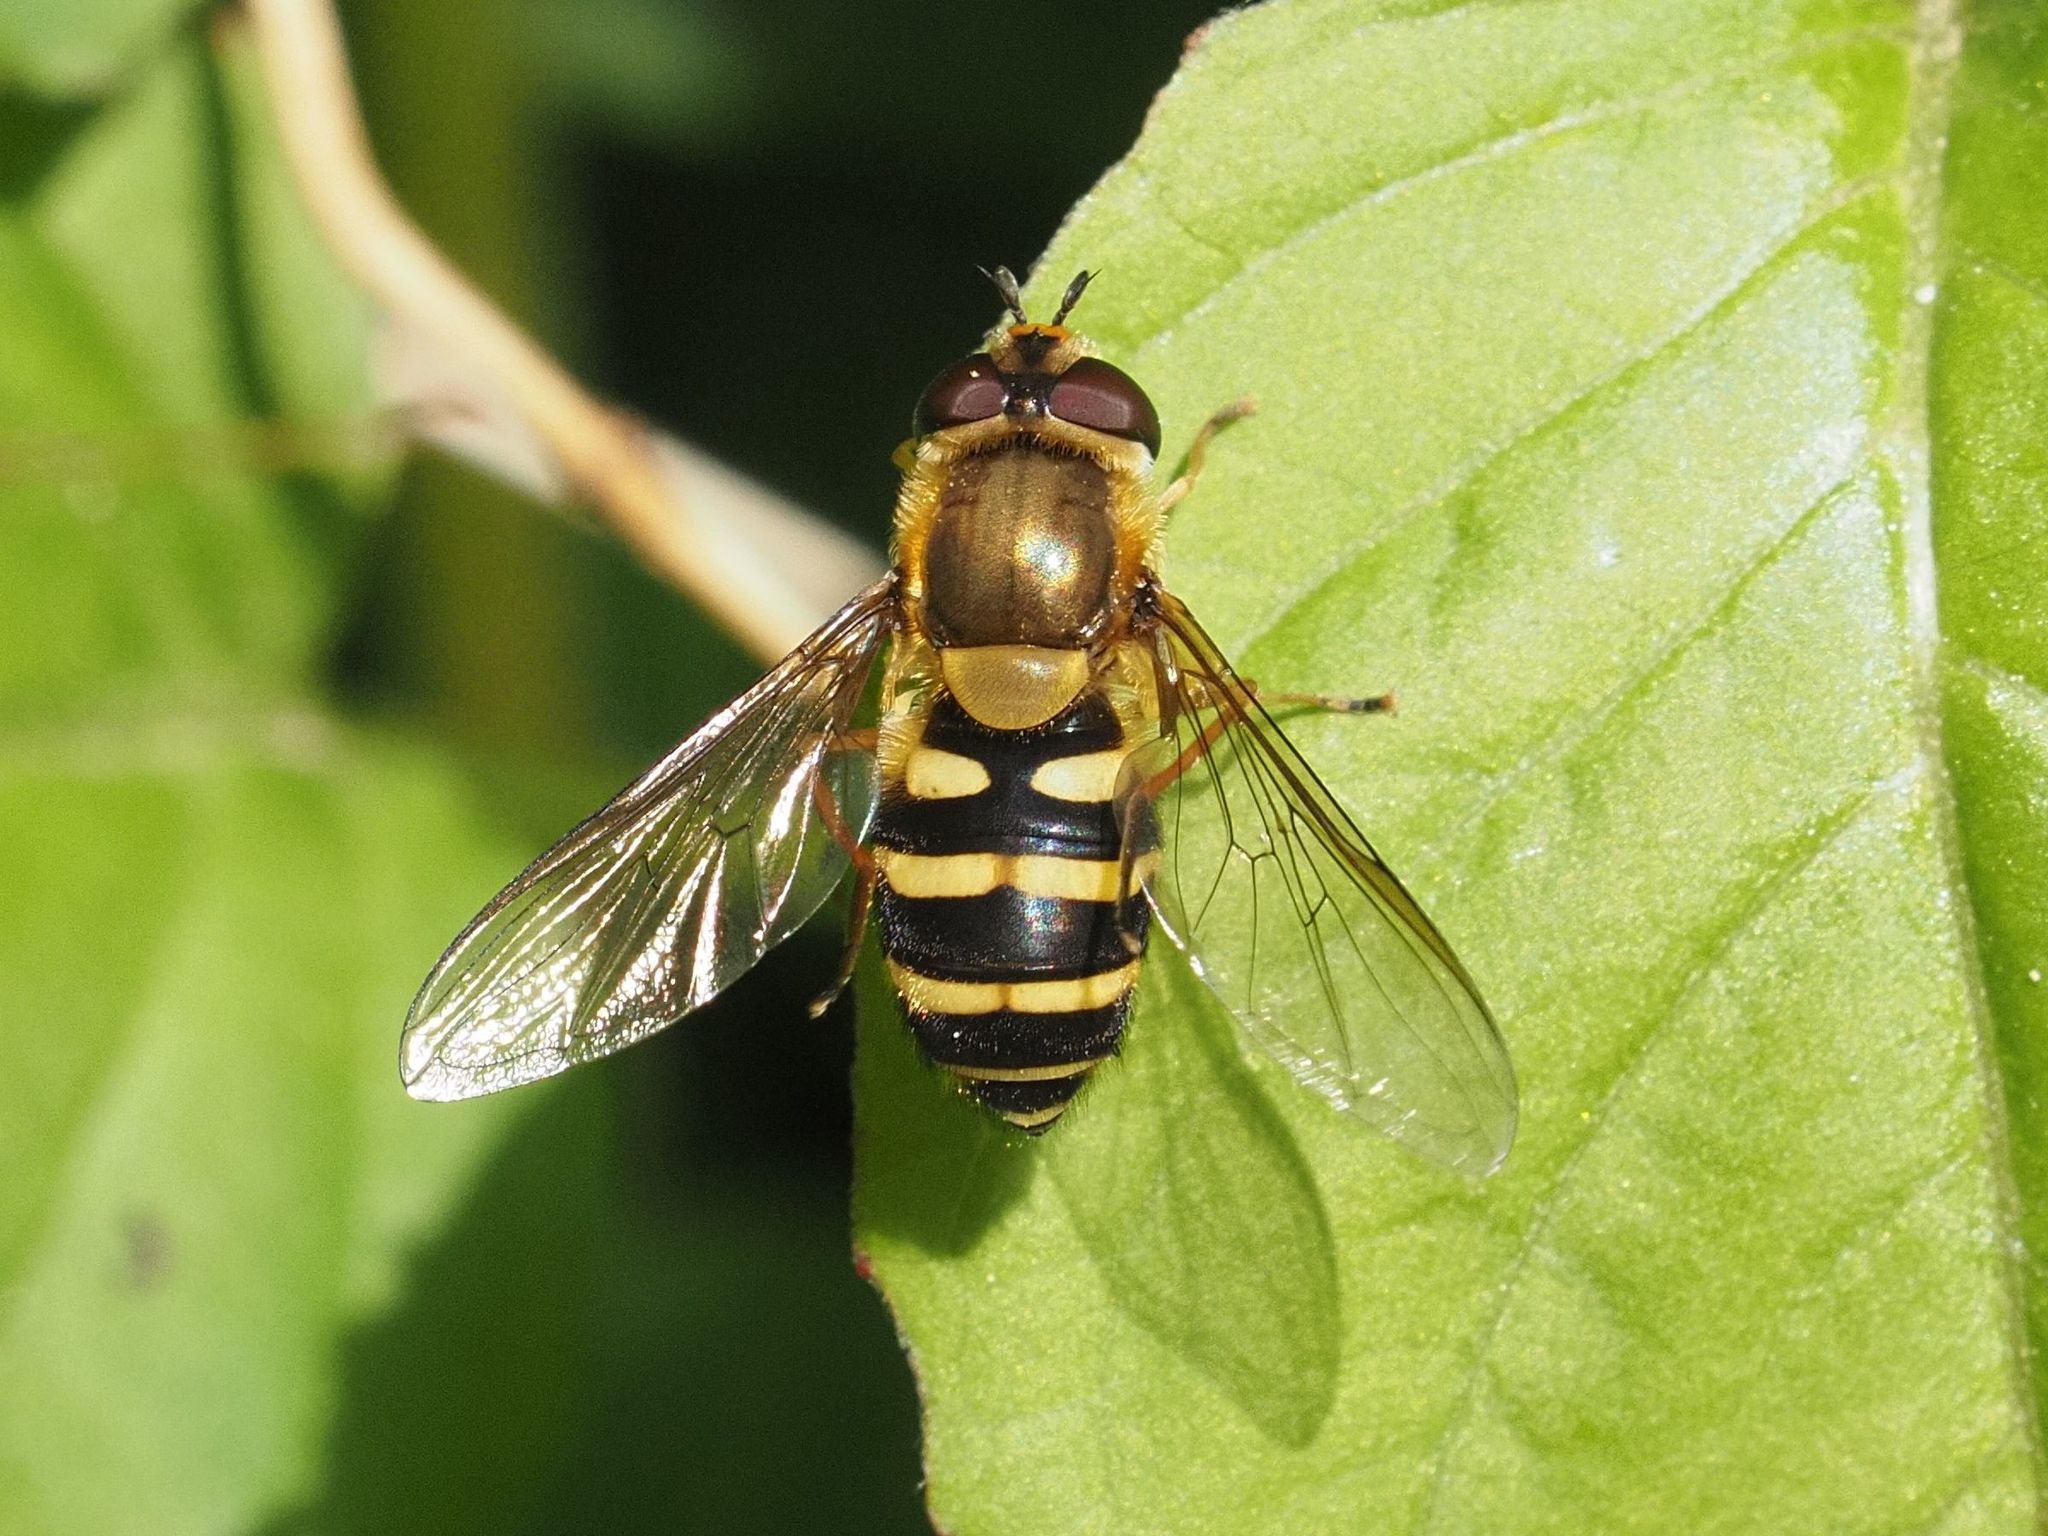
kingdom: Animalia
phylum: Arthropoda
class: Insecta
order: Diptera
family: Syrphidae
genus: Syrphus
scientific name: Syrphus
